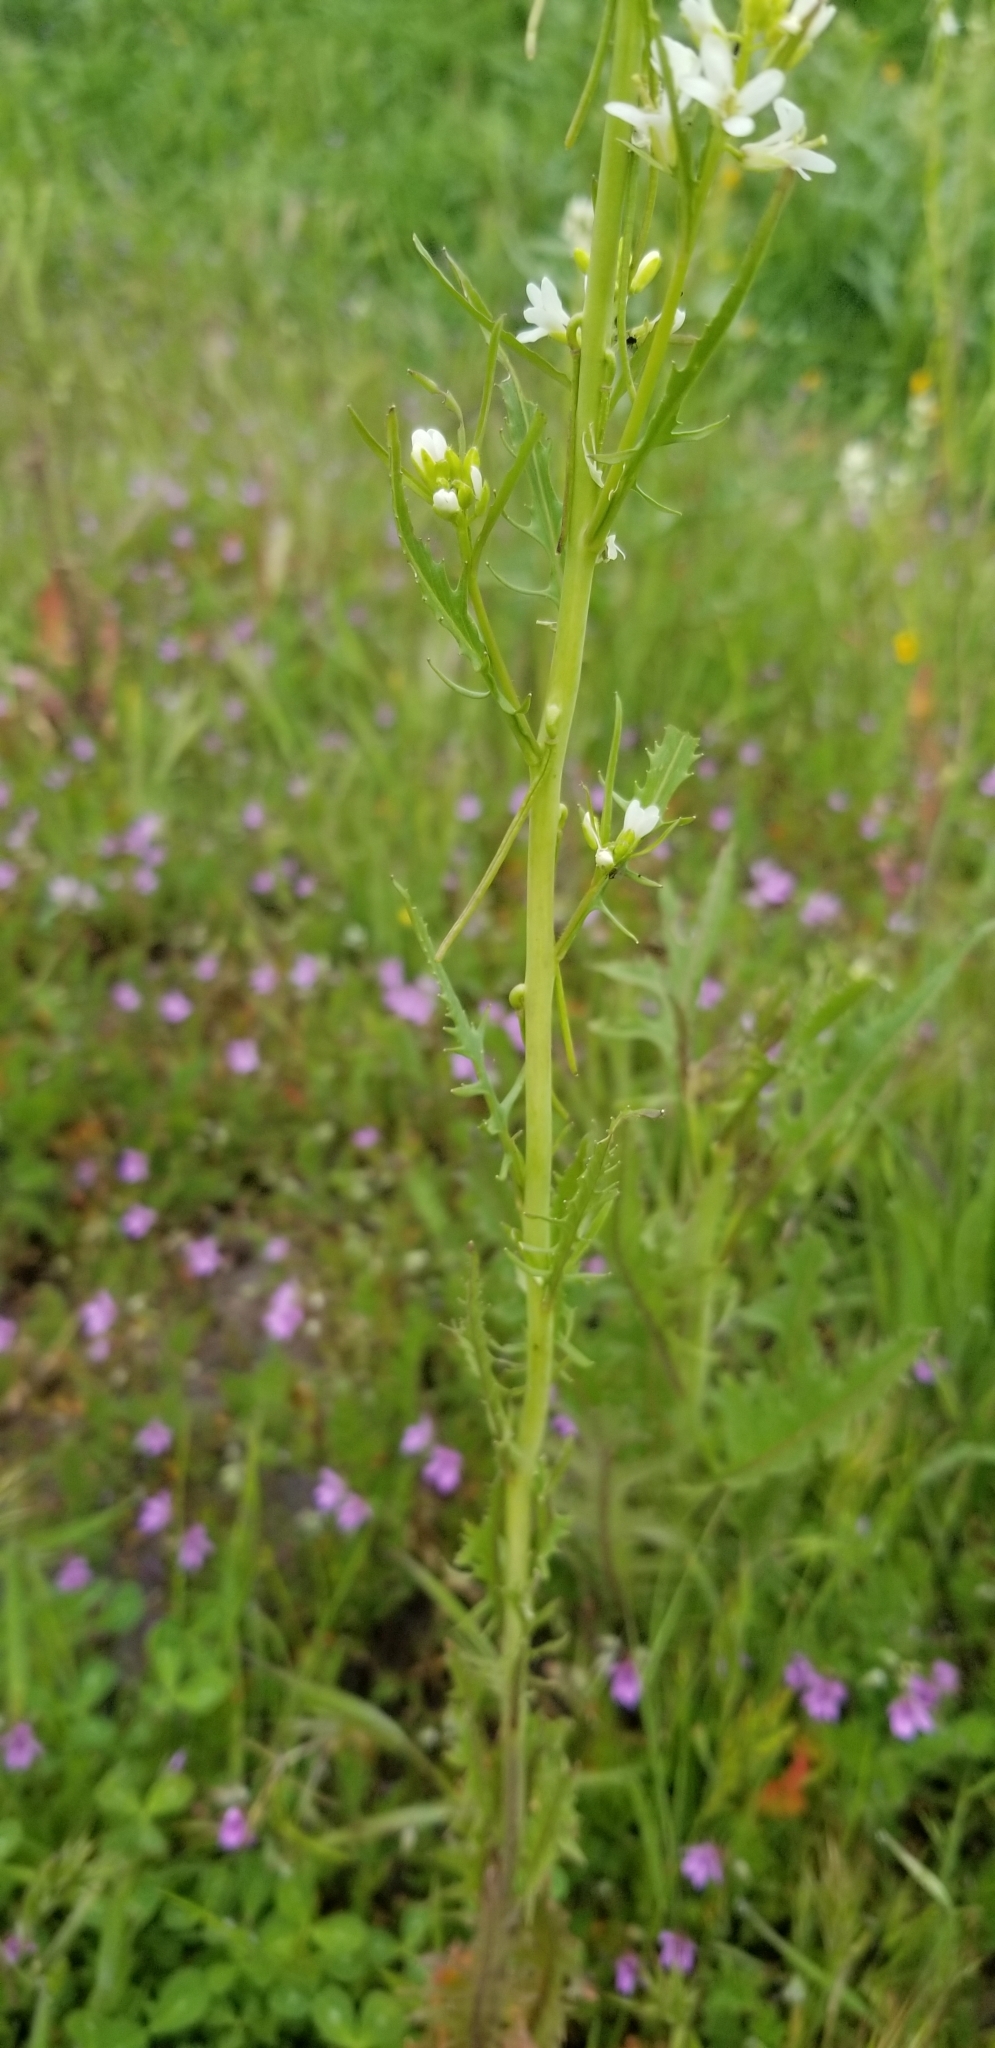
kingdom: Plantae
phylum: Tracheophyta
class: Magnoliopsida
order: Brassicales
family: Brassicaceae
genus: Streptanthus
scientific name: Streptanthus lasiophyllus
